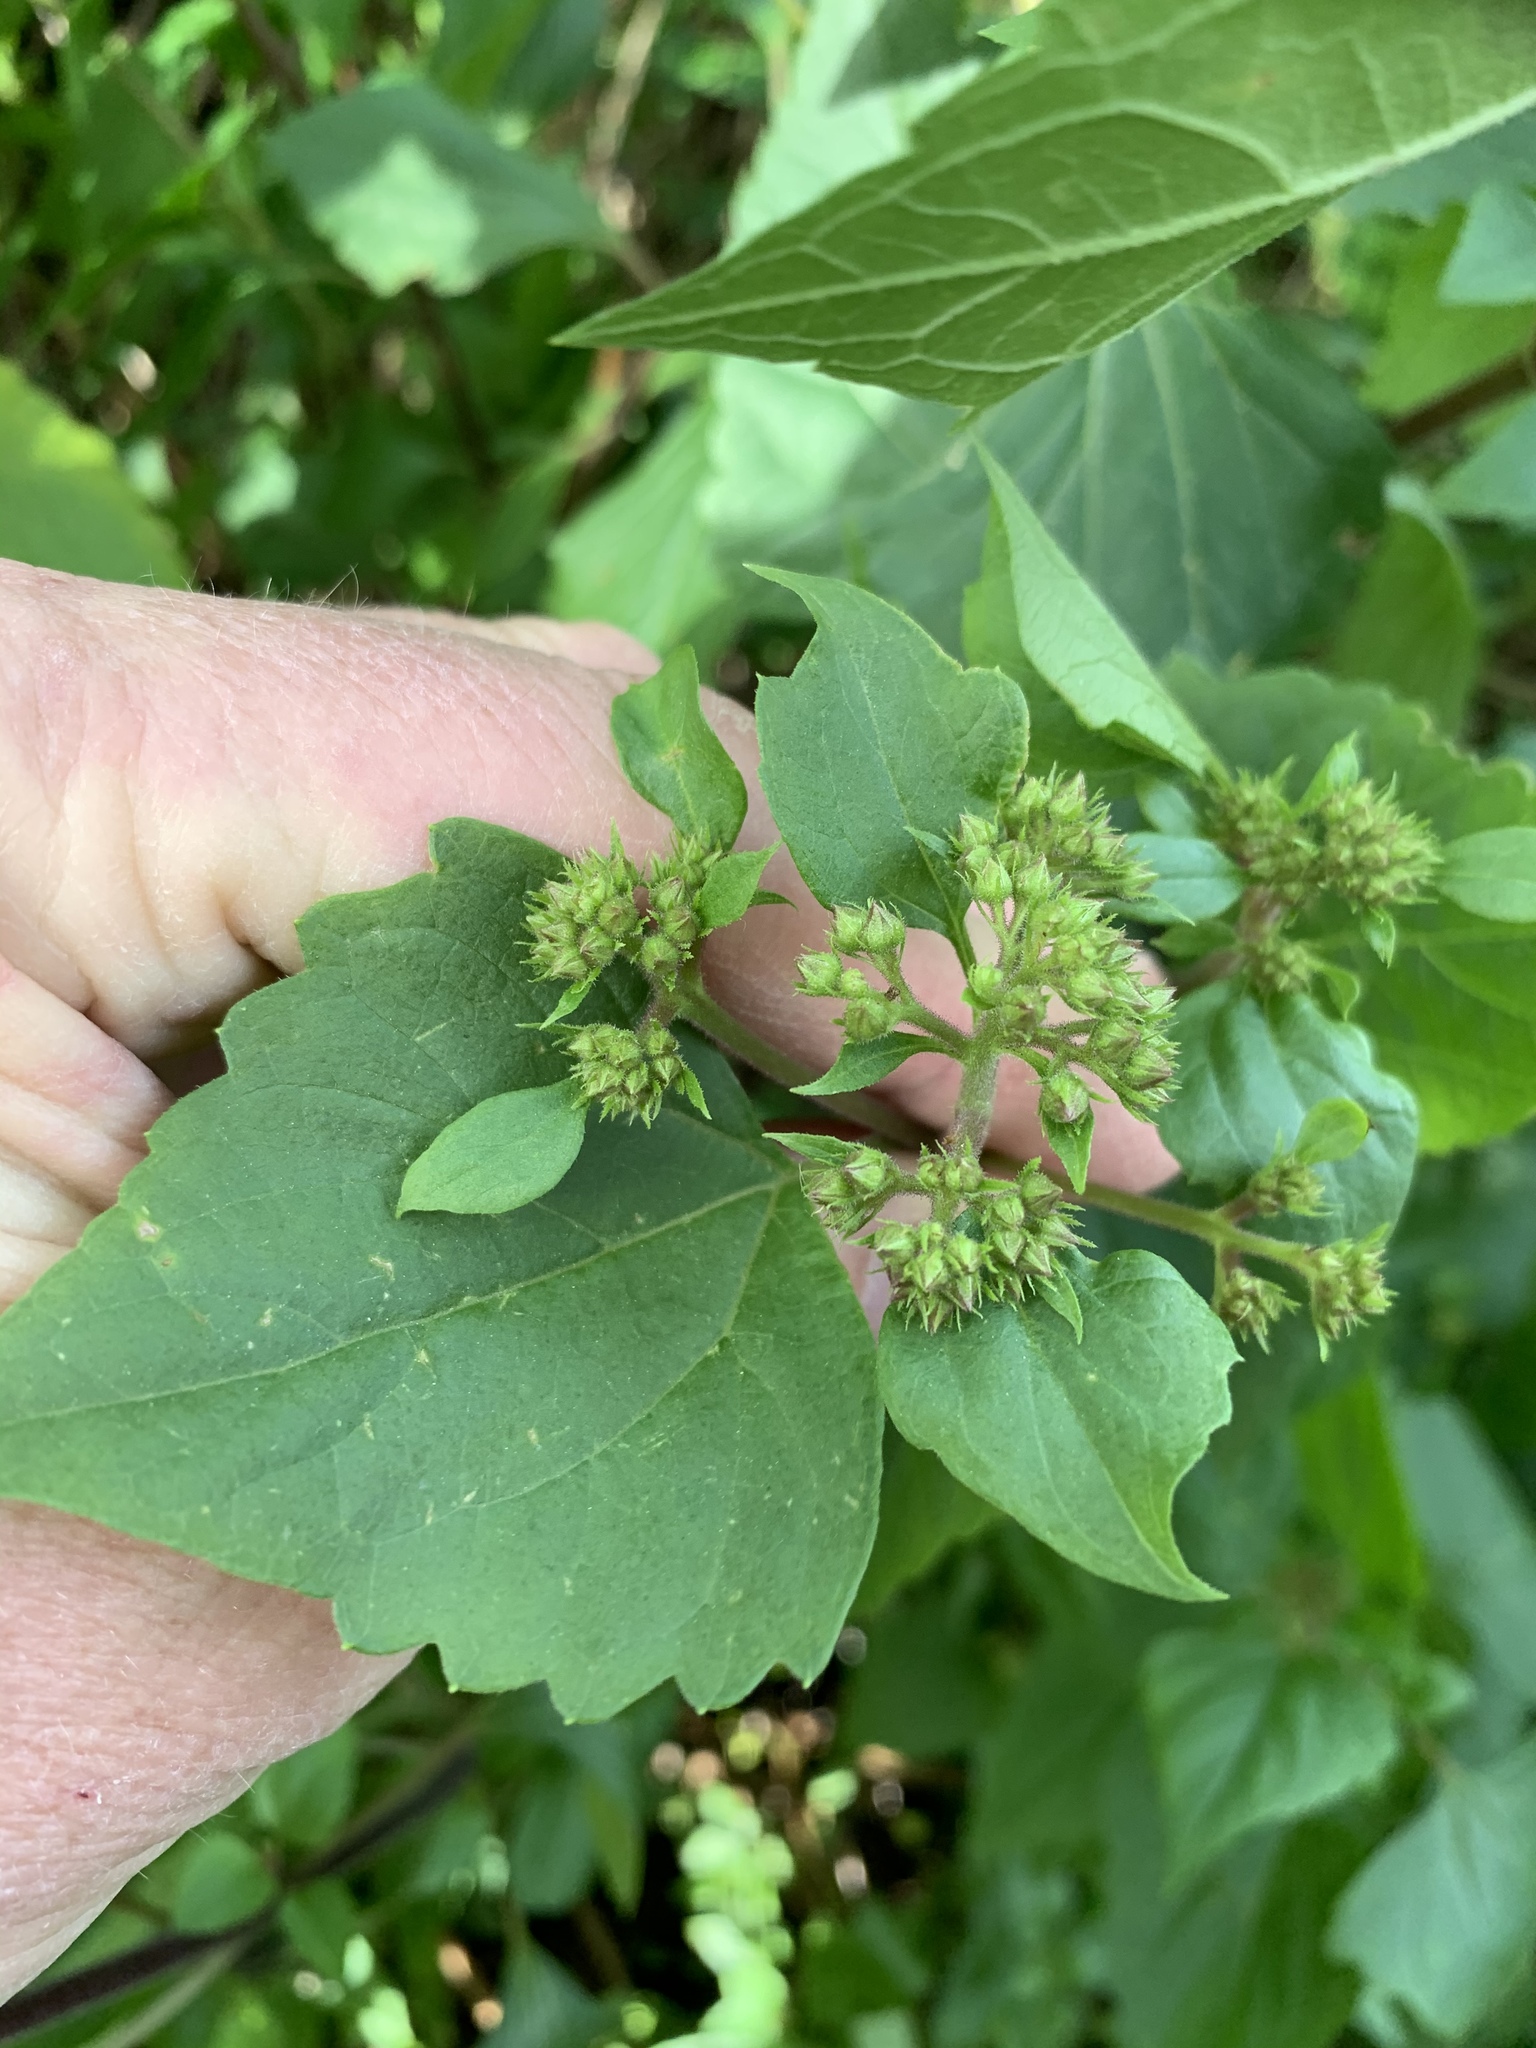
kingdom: Plantae
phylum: Tracheophyta
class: Magnoliopsida
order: Asterales
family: Asteraceae
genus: Ageratina
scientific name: Ageratina adenophora
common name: Sticky snakeroot
